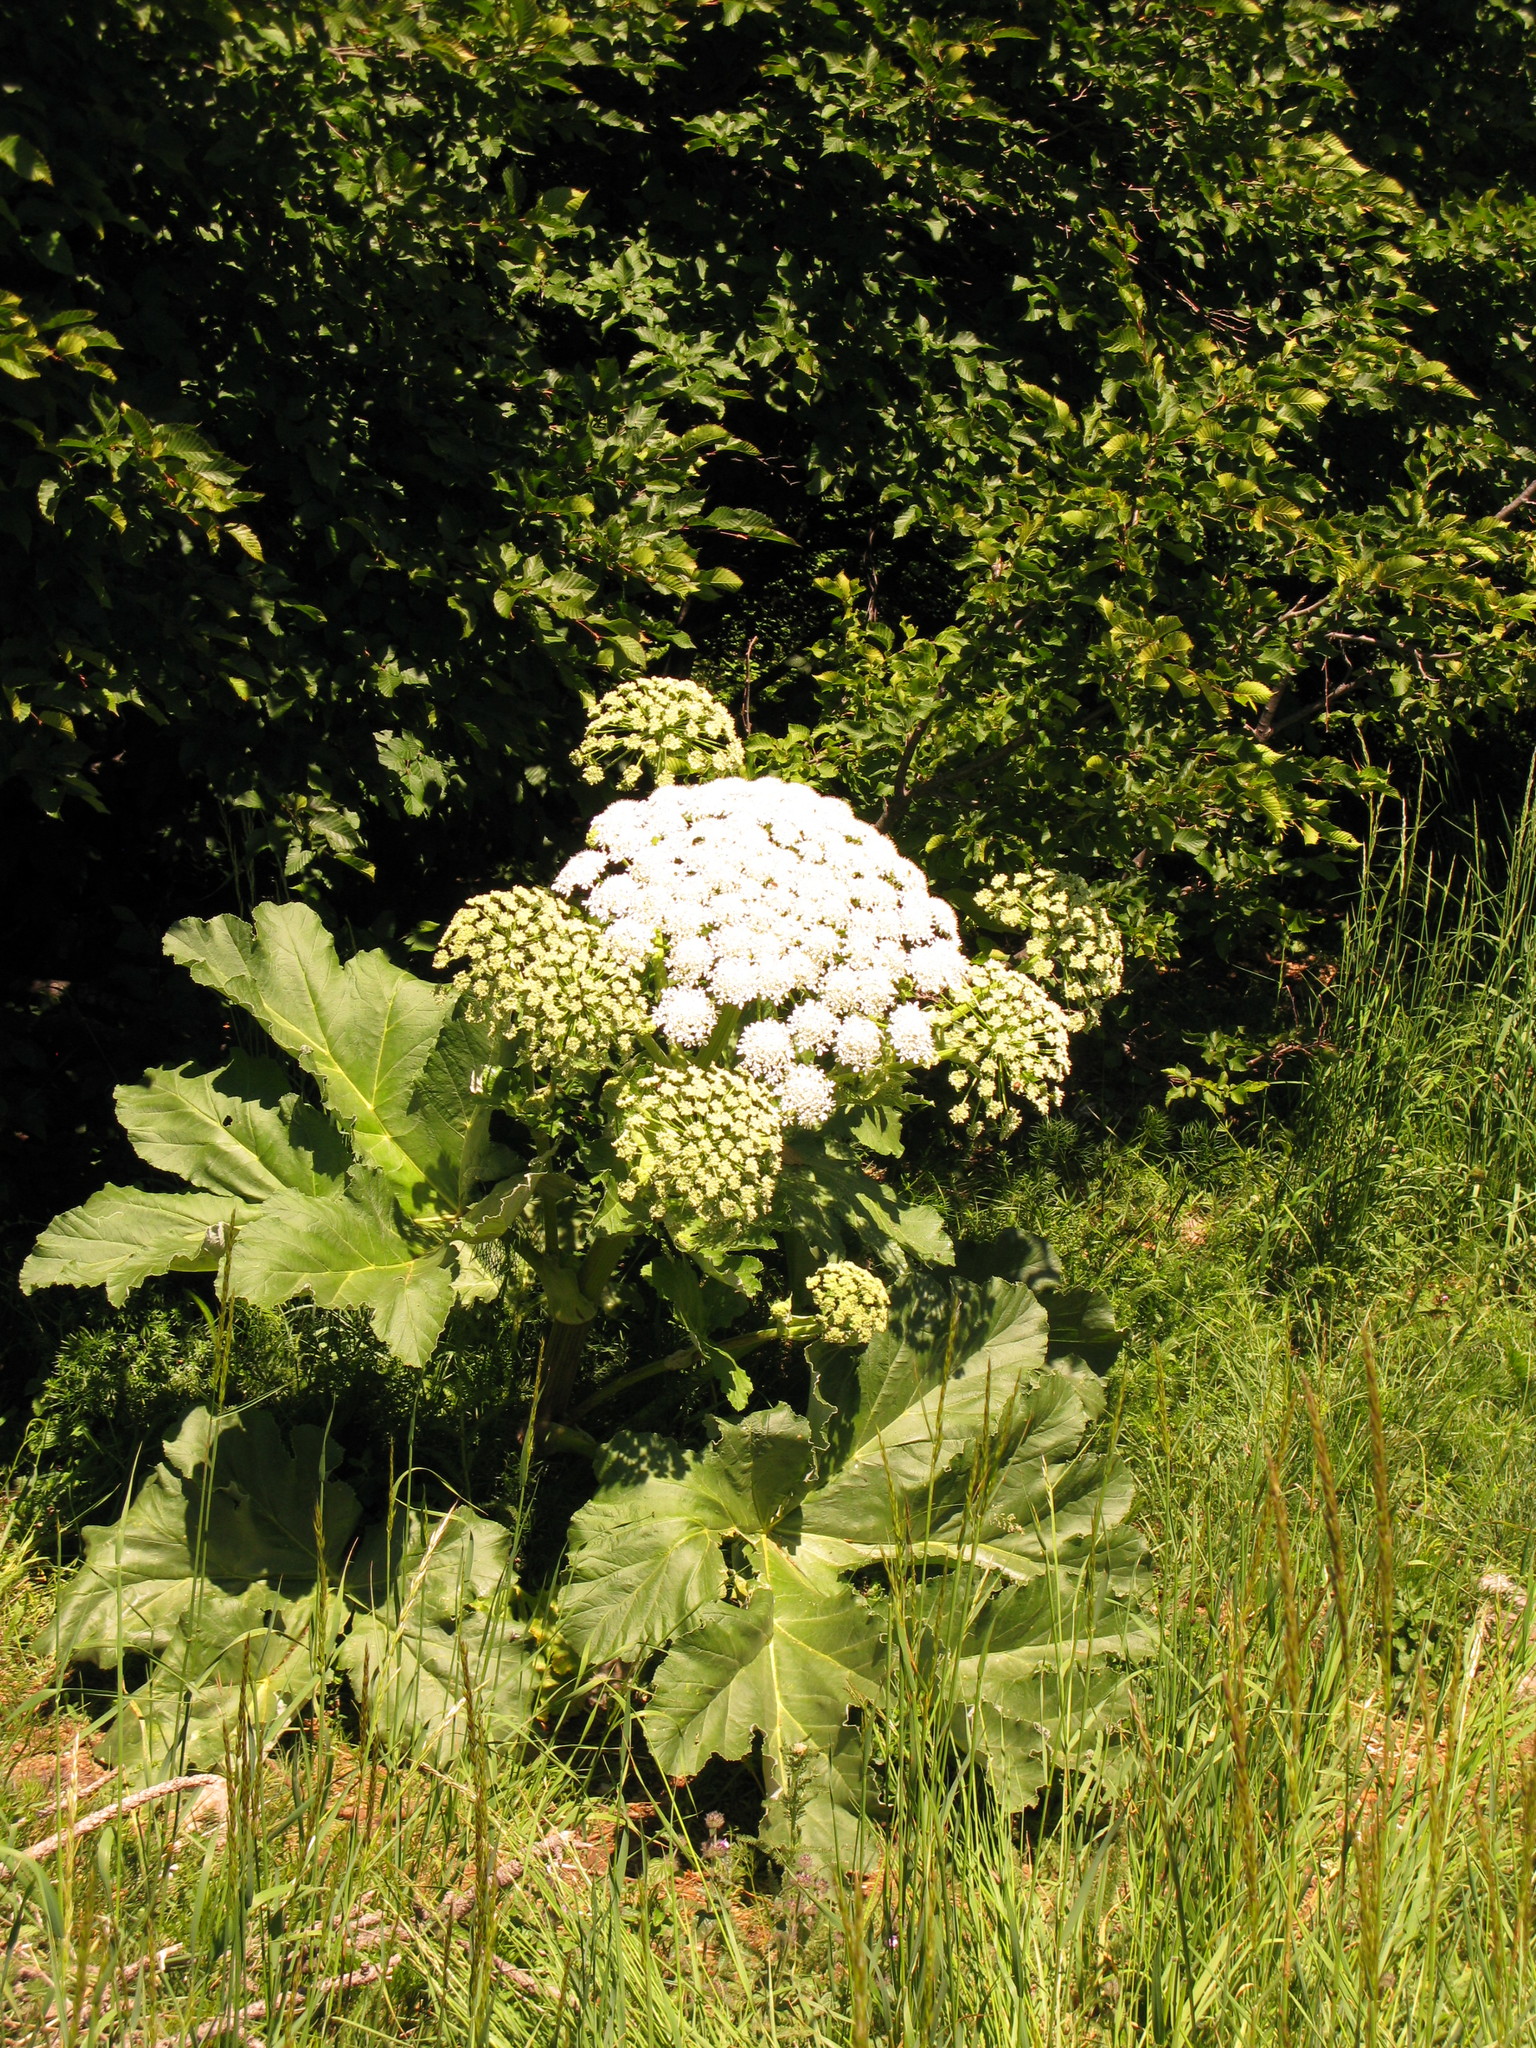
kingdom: Plantae
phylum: Tracheophyta
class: Magnoliopsida
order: Apiales
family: Apiaceae
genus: Heracleum
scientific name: Heracleum stevenii
